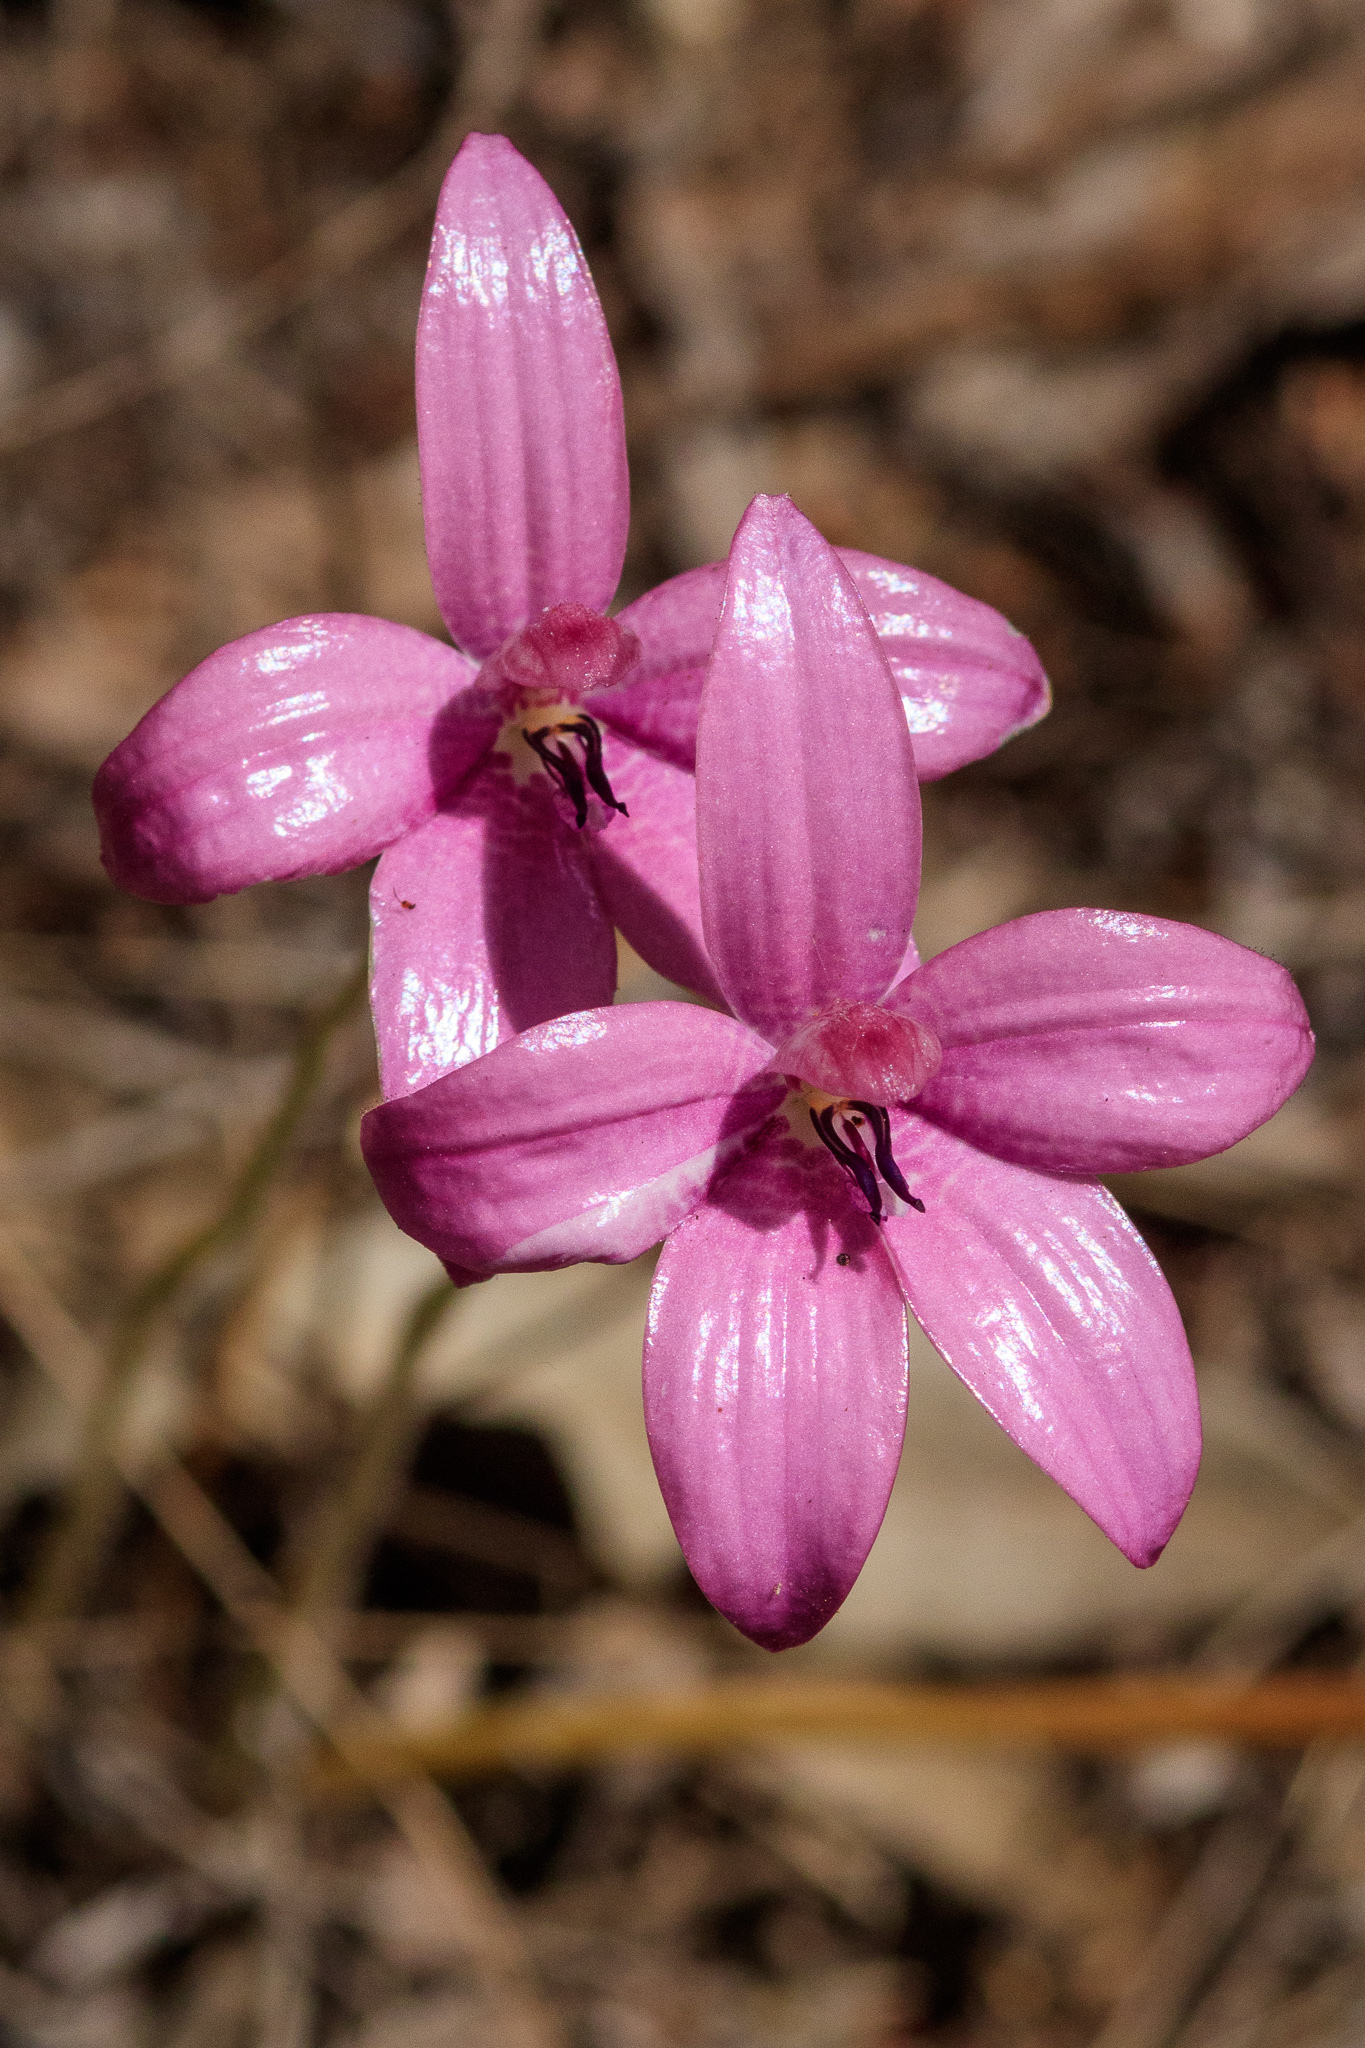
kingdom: Plantae
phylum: Tracheophyta
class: Liliopsida
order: Asparagales
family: Orchidaceae
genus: Caladenia
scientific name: Caladenia emarginata
